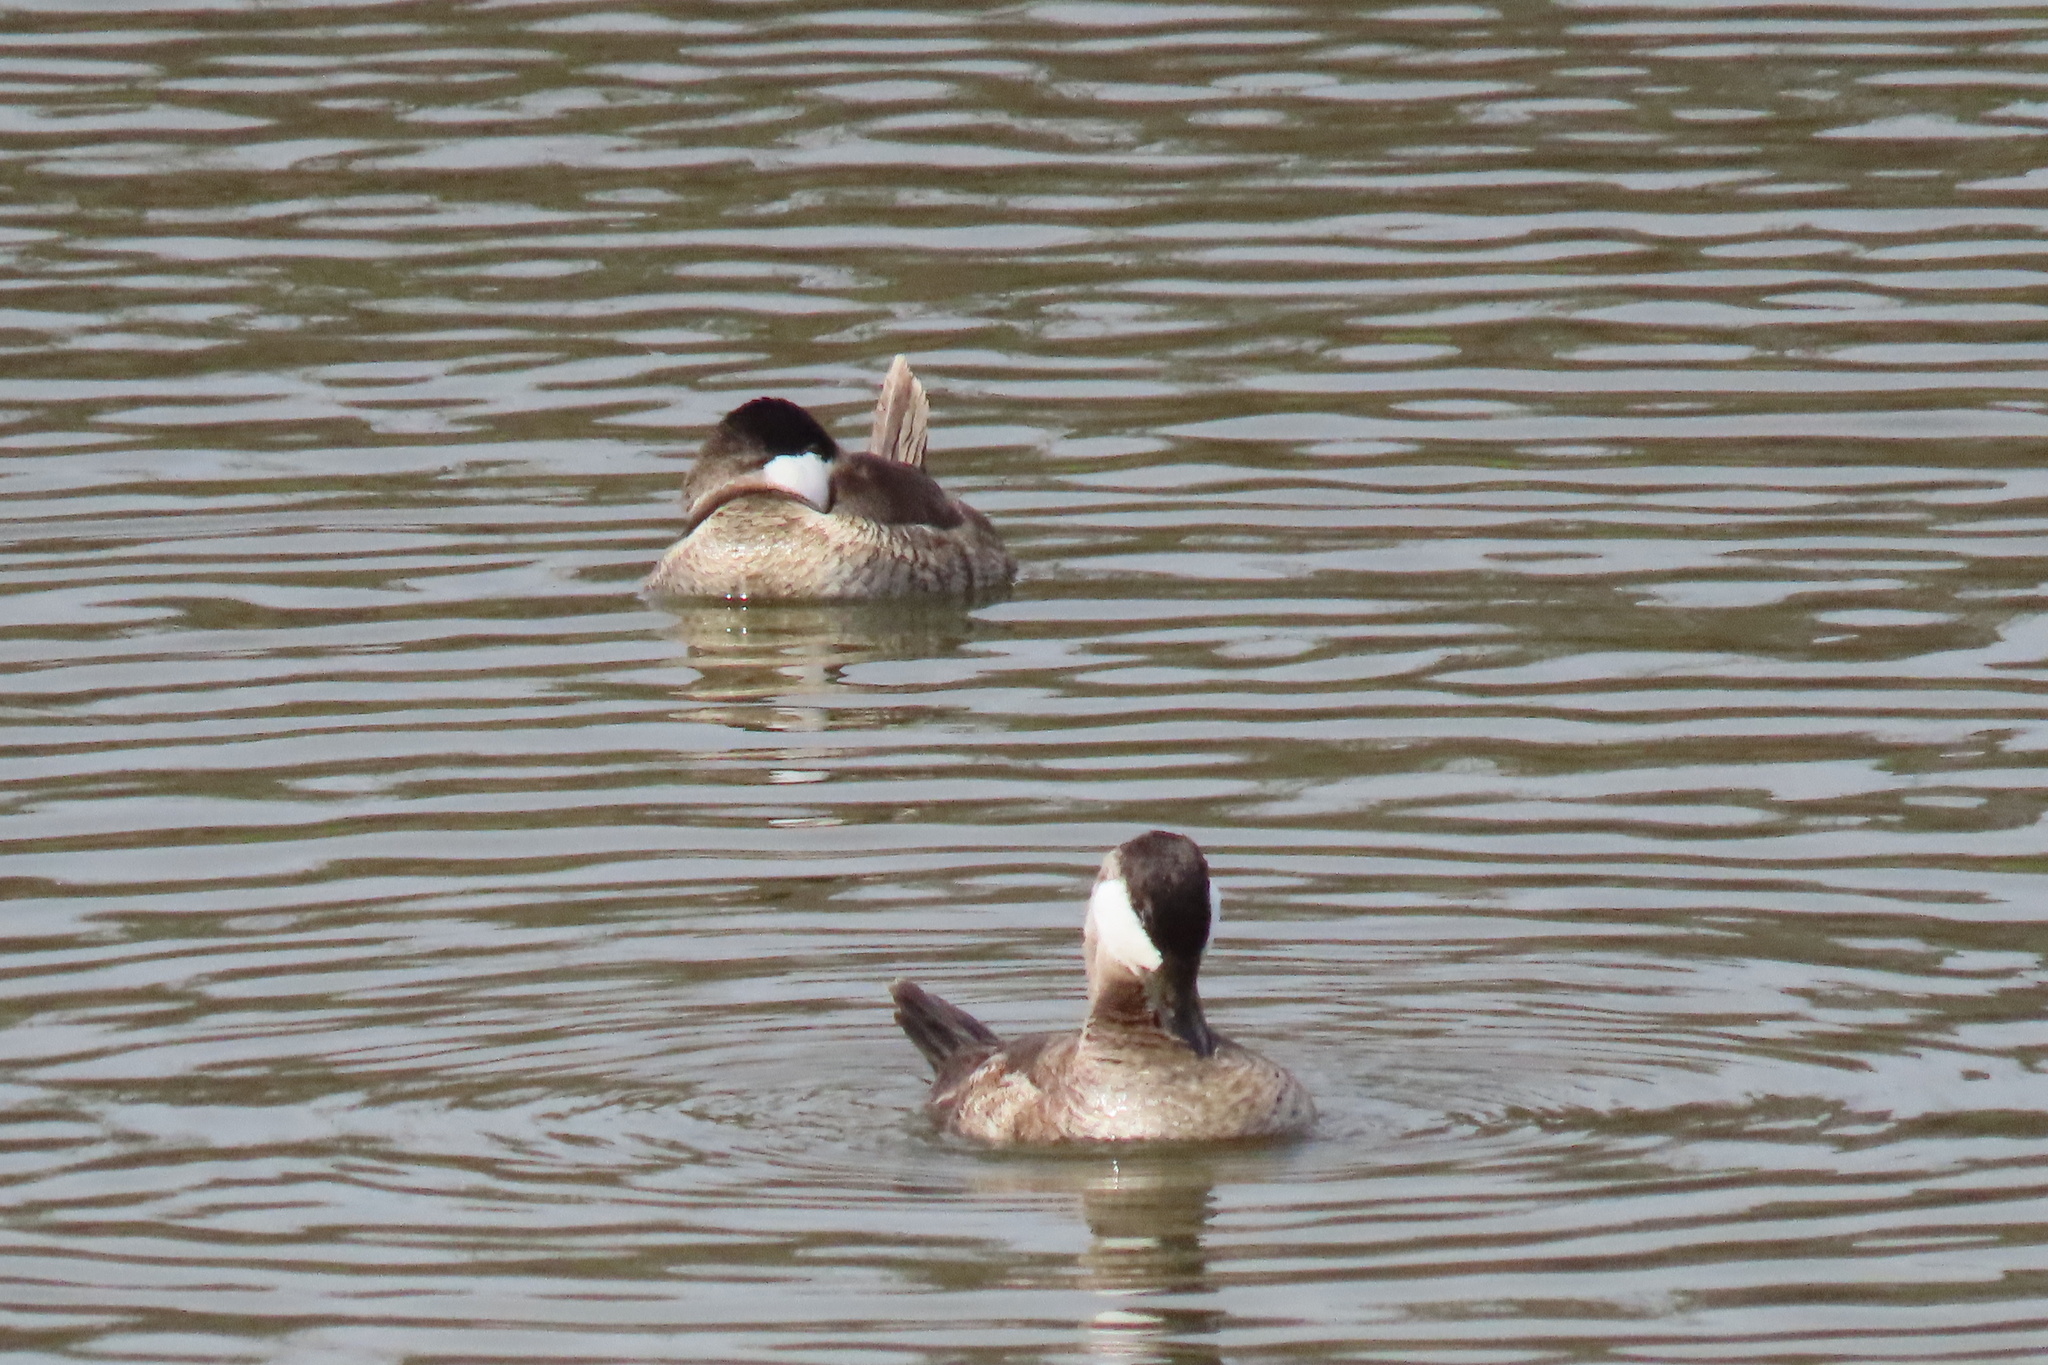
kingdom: Animalia
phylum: Chordata
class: Aves
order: Anseriformes
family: Anatidae
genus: Oxyura
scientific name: Oxyura jamaicensis
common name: Ruddy duck
